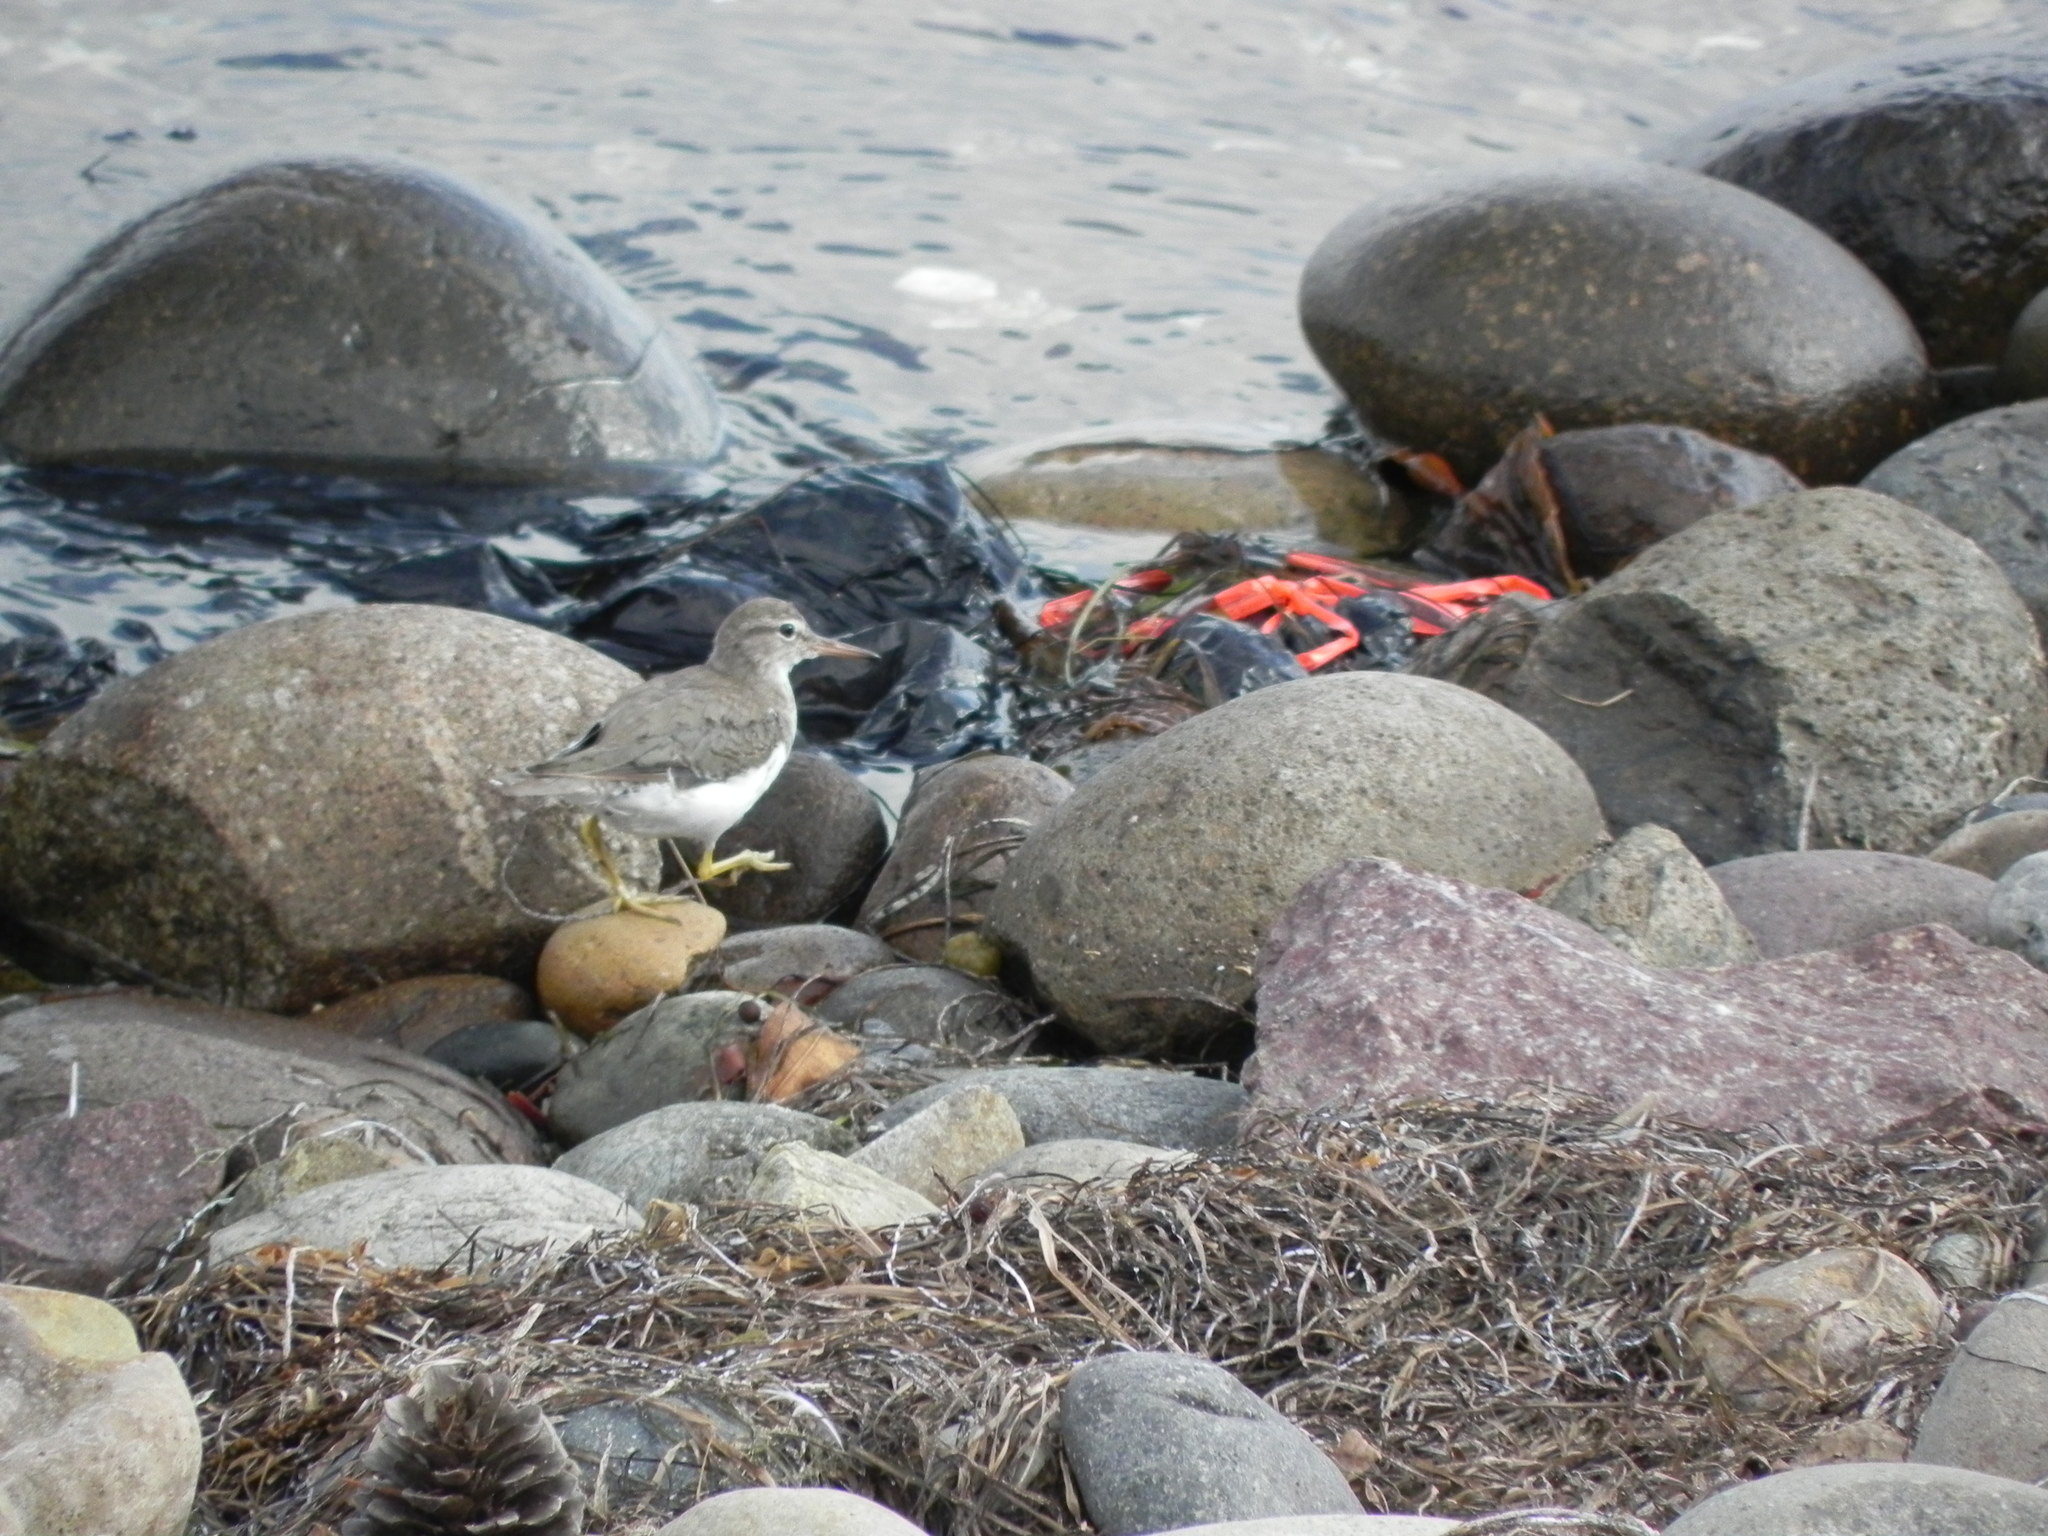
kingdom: Animalia
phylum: Chordata
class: Aves
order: Charadriiformes
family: Scolopacidae
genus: Actitis
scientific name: Actitis macularius
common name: Spotted sandpiper
